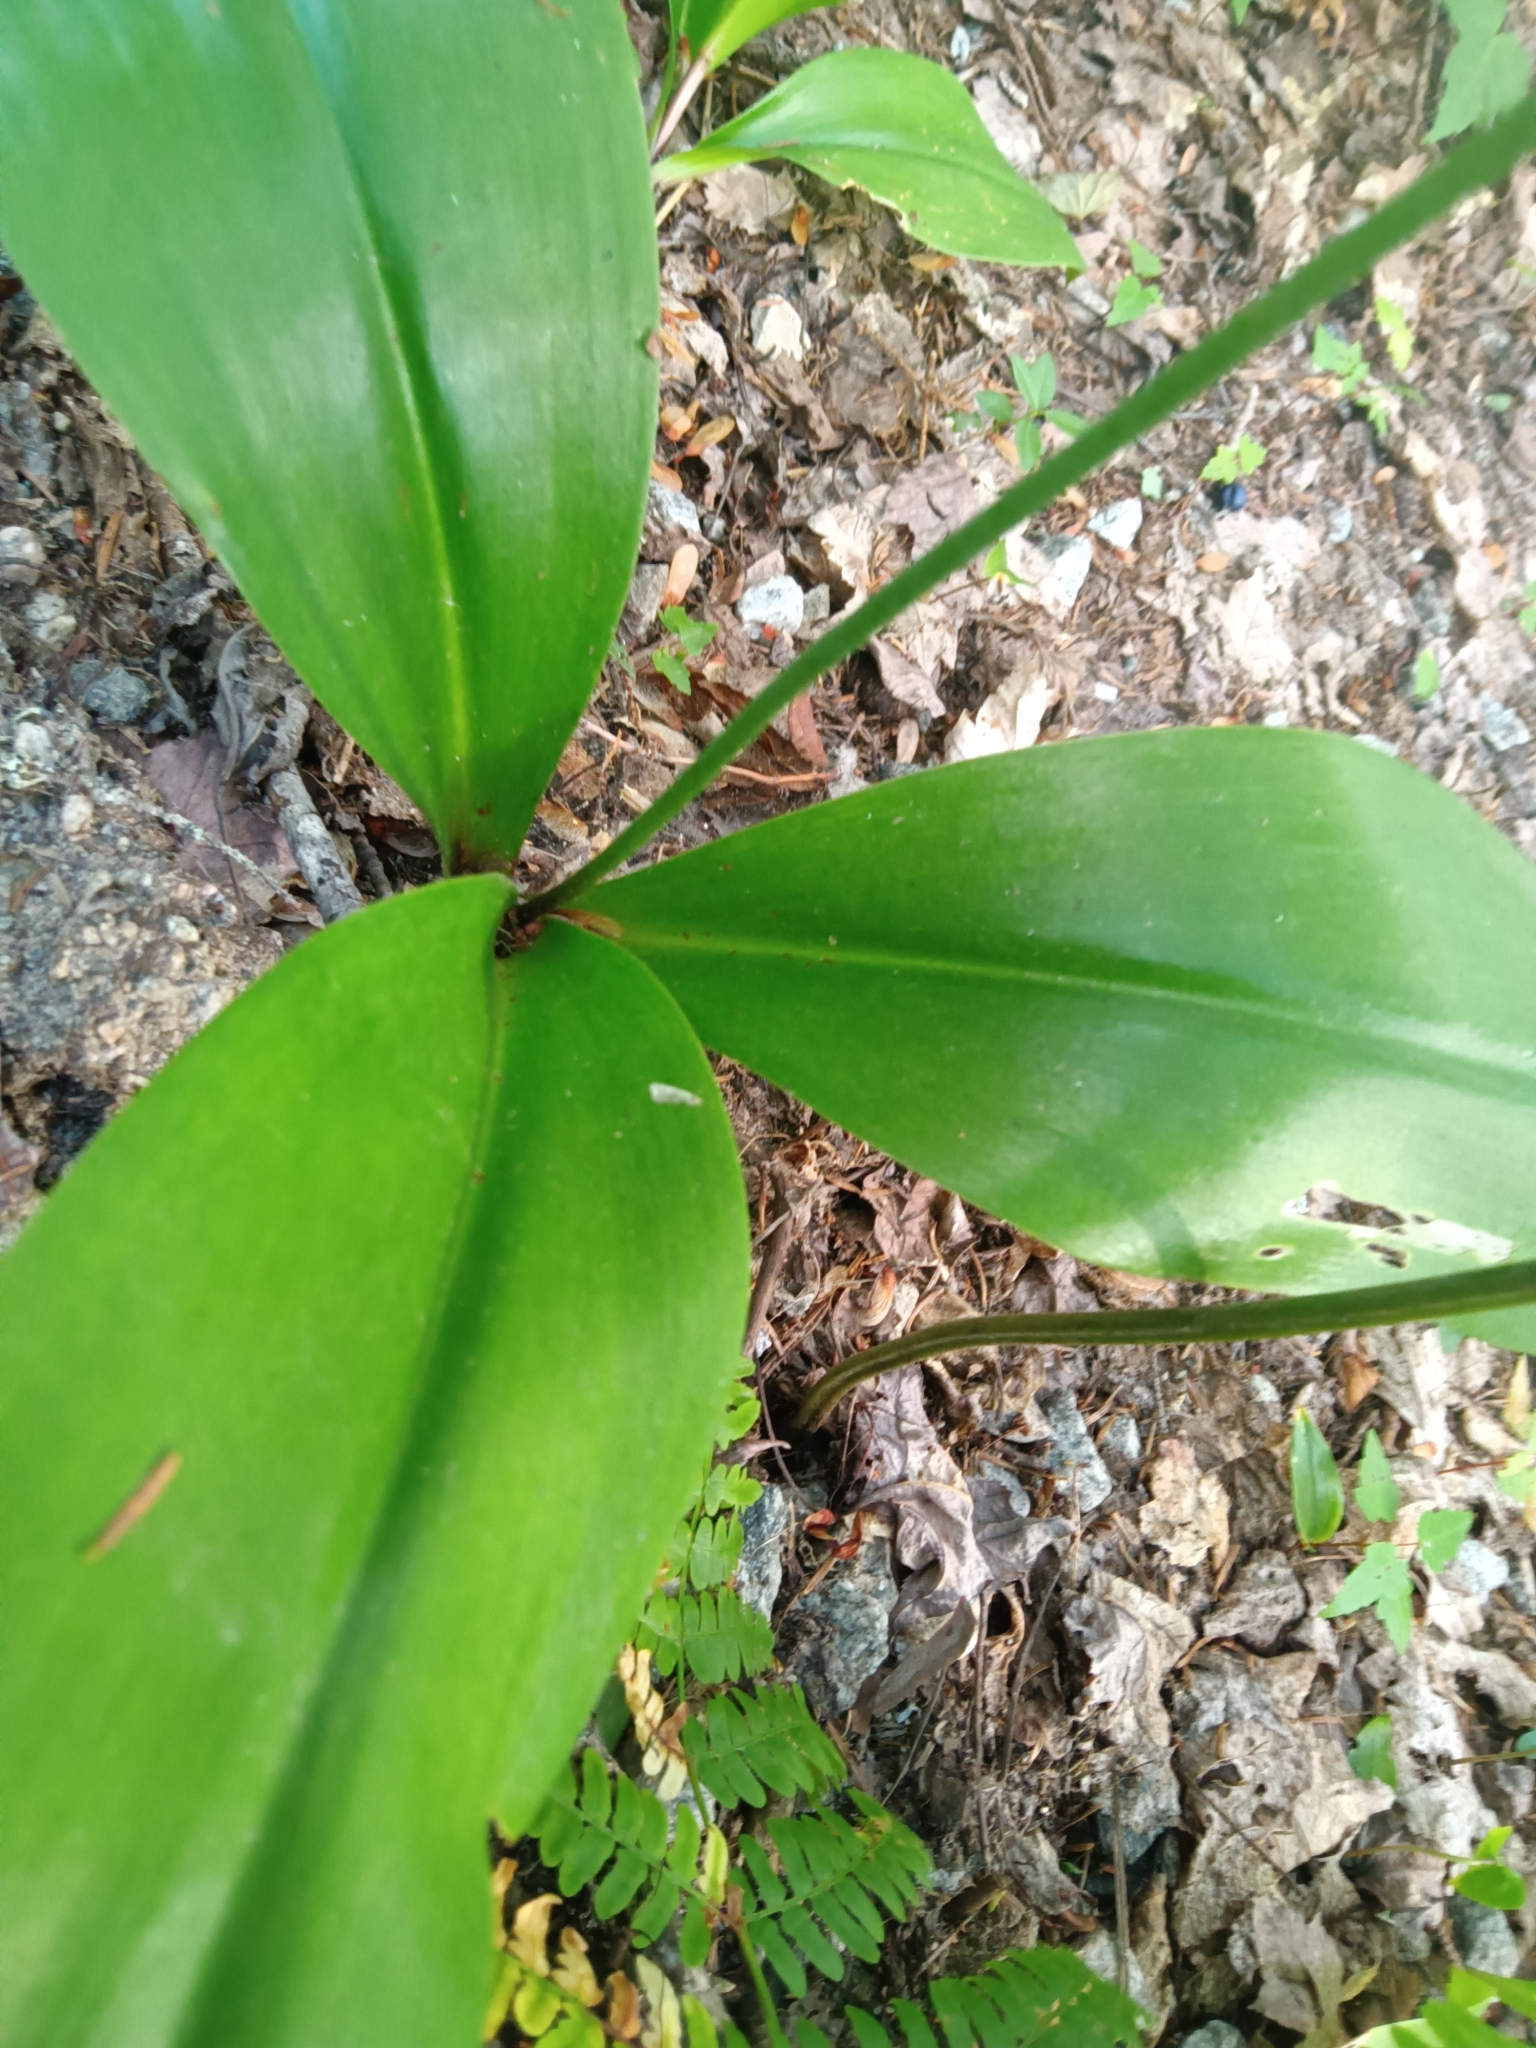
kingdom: Plantae
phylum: Tracheophyta
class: Liliopsida
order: Liliales
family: Liliaceae
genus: Clintonia
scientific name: Clintonia borealis
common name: Yellow clintonia
